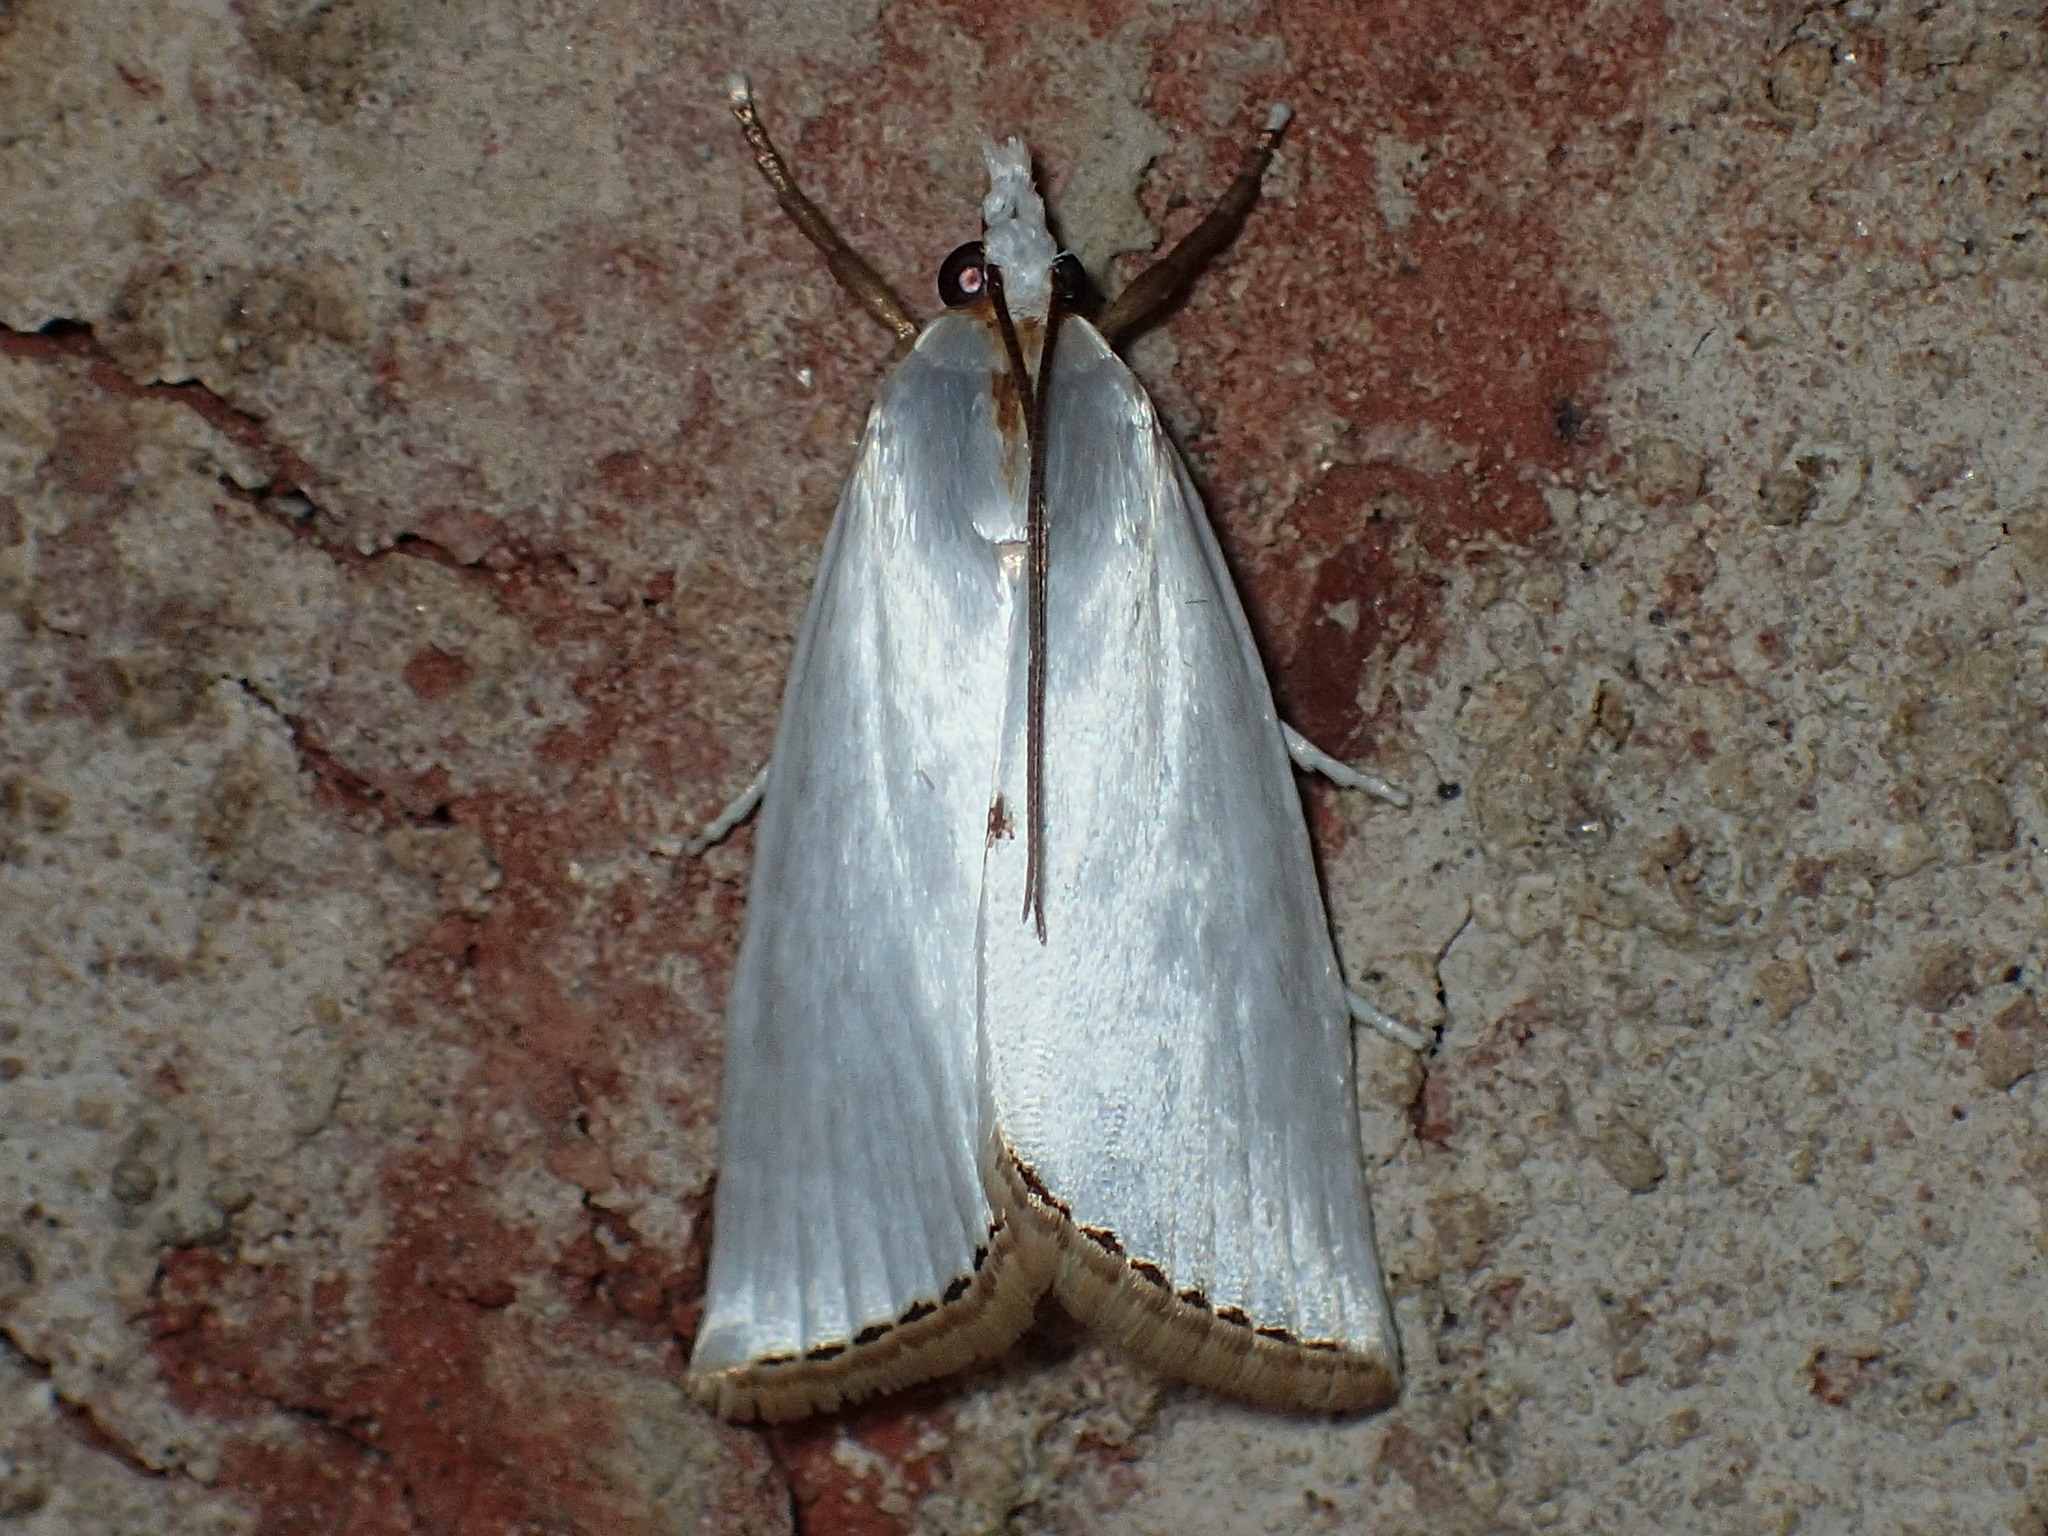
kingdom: Animalia
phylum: Arthropoda
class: Insecta
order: Lepidoptera
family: Crambidae
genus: Argyria
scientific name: Argyria nivalis
